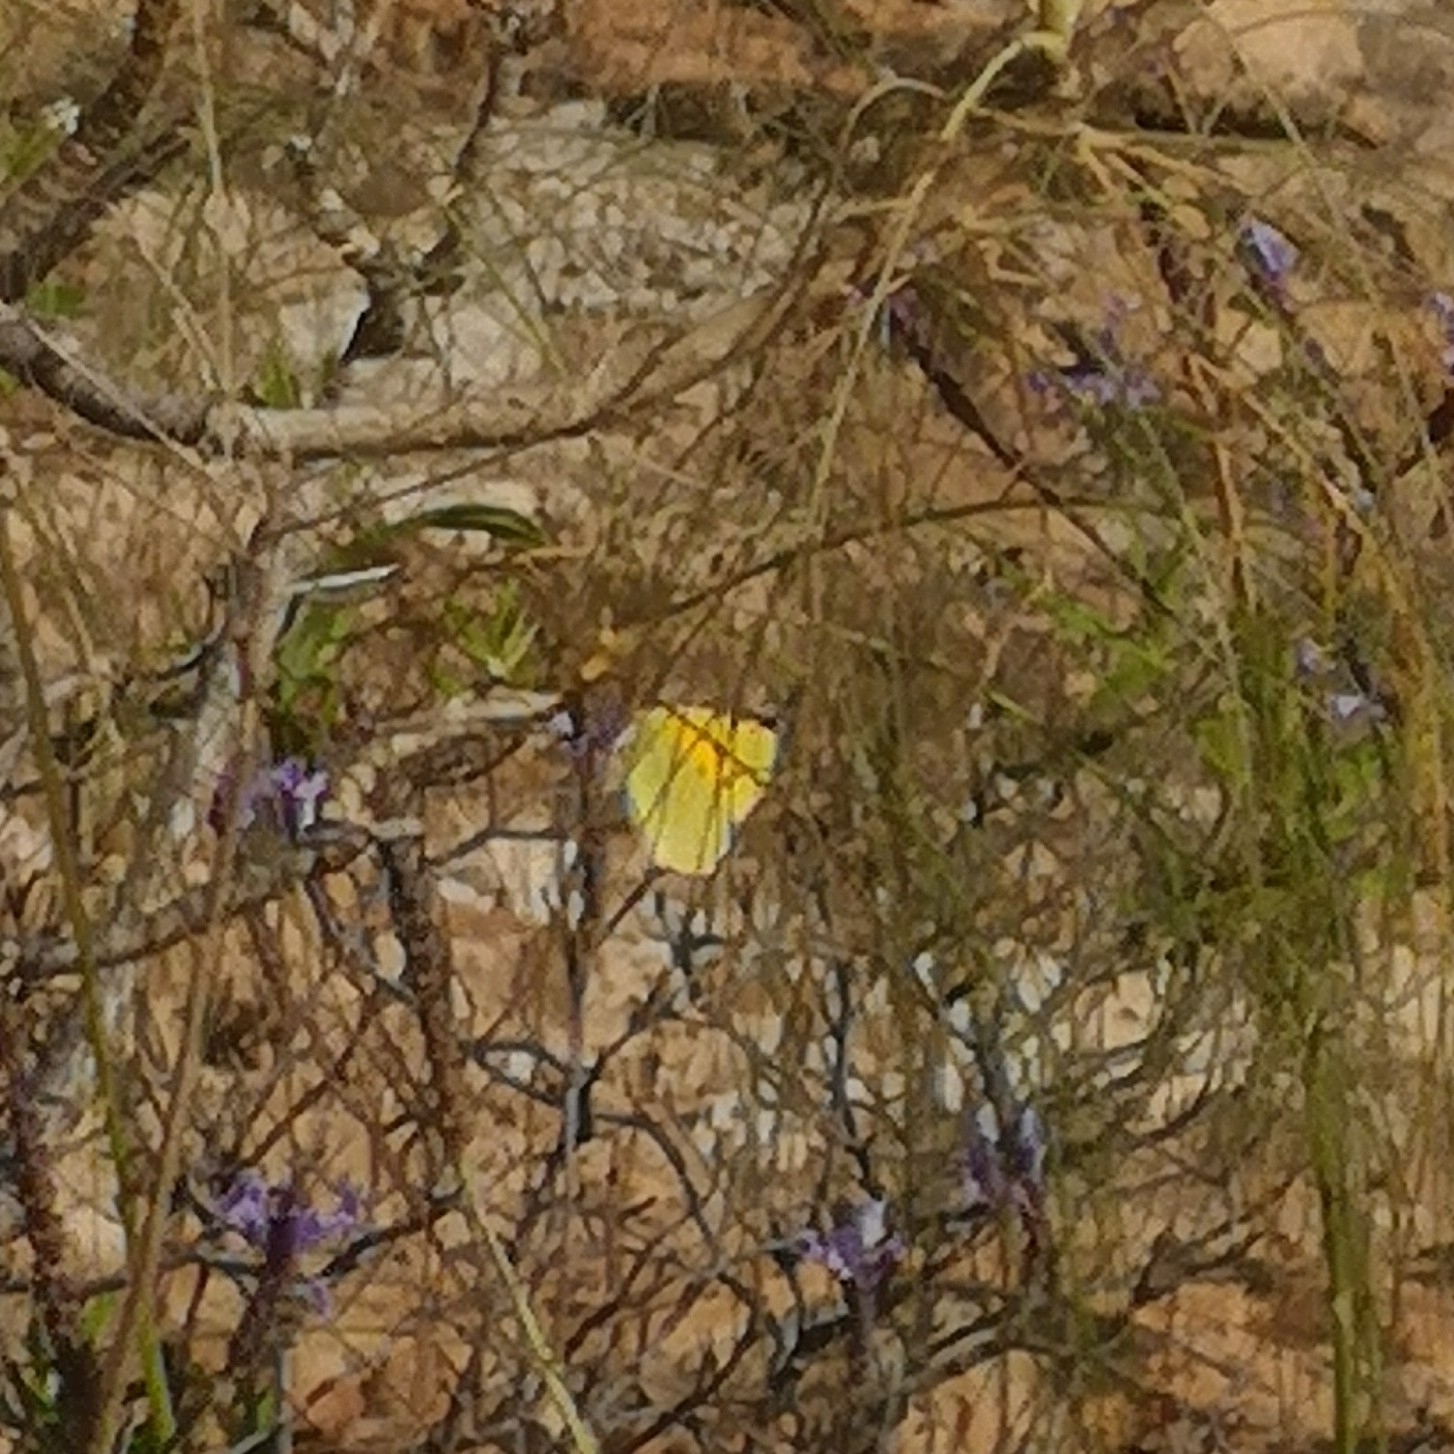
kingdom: Animalia
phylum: Arthropoda
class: Insecta
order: Lepidoptera
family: Pieridae
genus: Colias
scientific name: Colias croceus
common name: Clouded yellow
